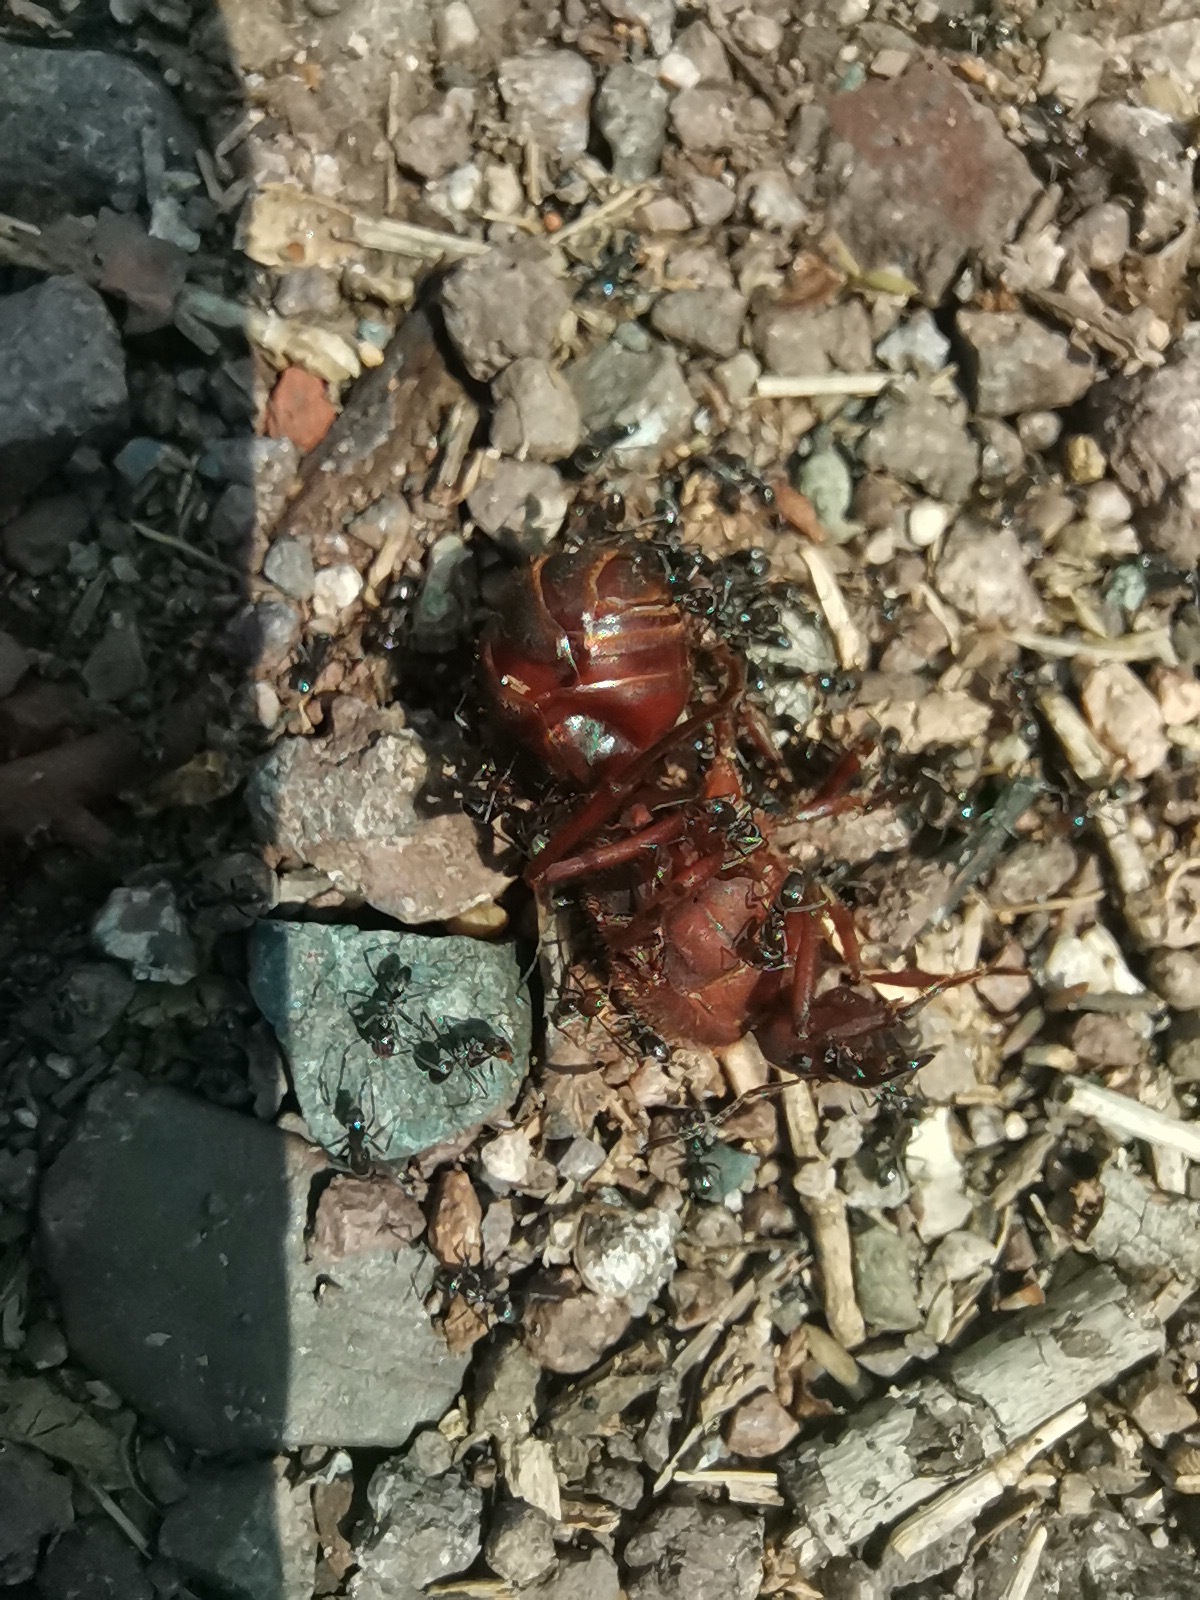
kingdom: Animalia
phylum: Arthropoda
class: Insecta
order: Hymenoptera
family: Formicidae
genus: Atta
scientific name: Atta mexicana
